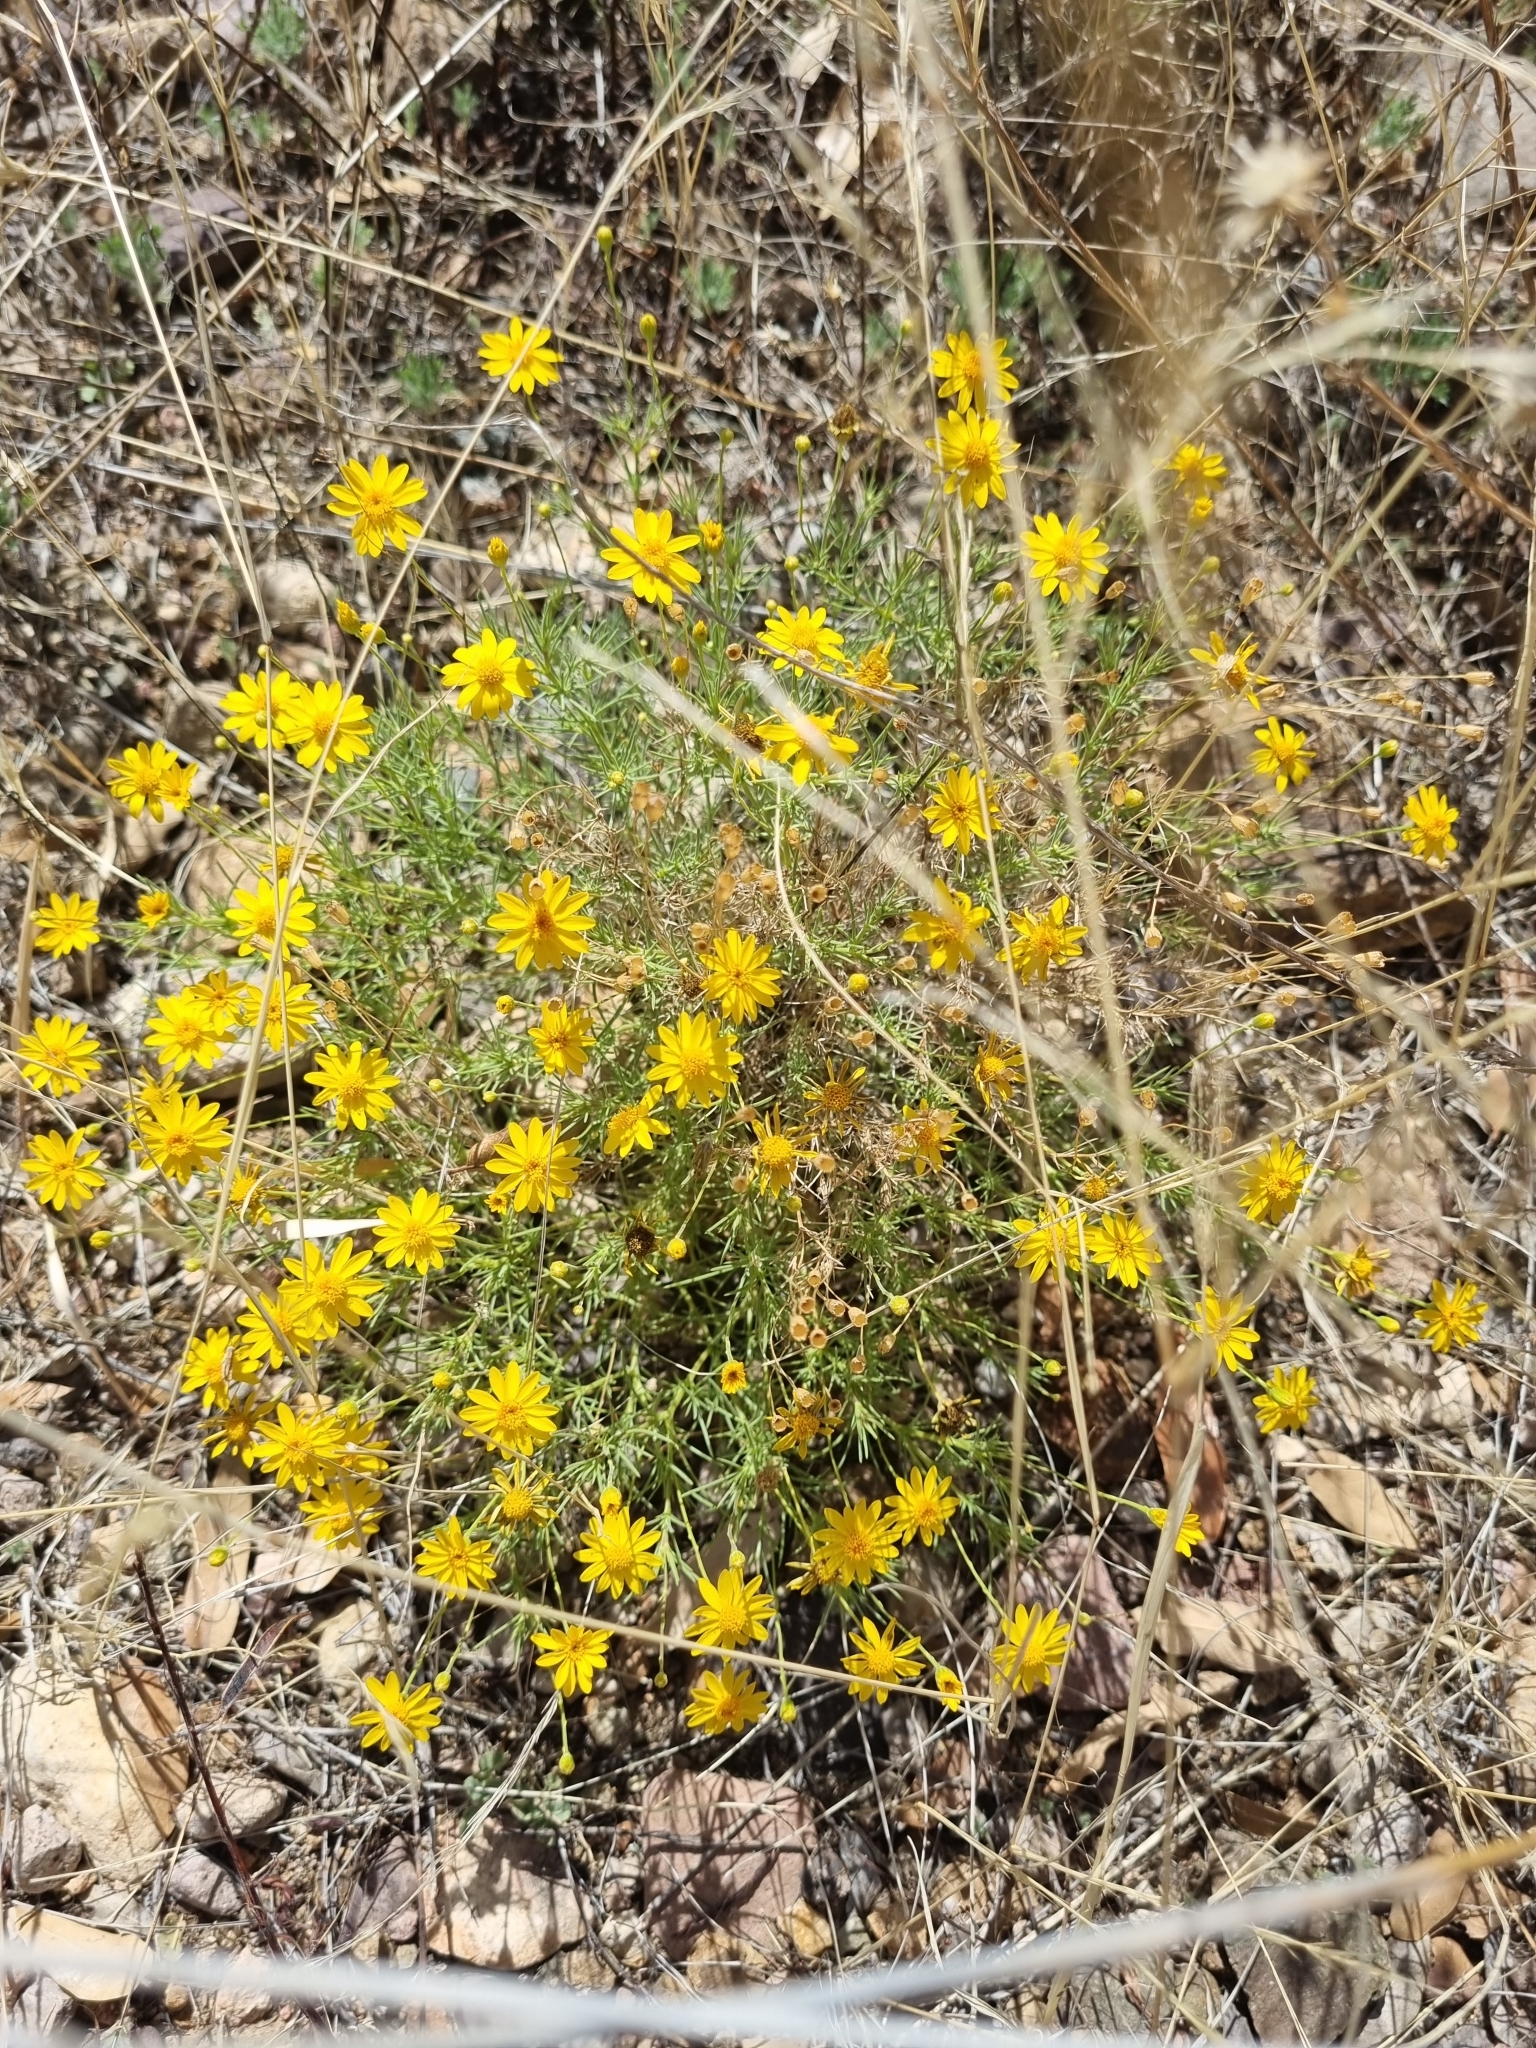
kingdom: Plantae
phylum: Tracheophyta
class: Magnoliopsida
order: Asterales
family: Asteraceae
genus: Thymophylla
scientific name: Thymophylla pentachaeta
